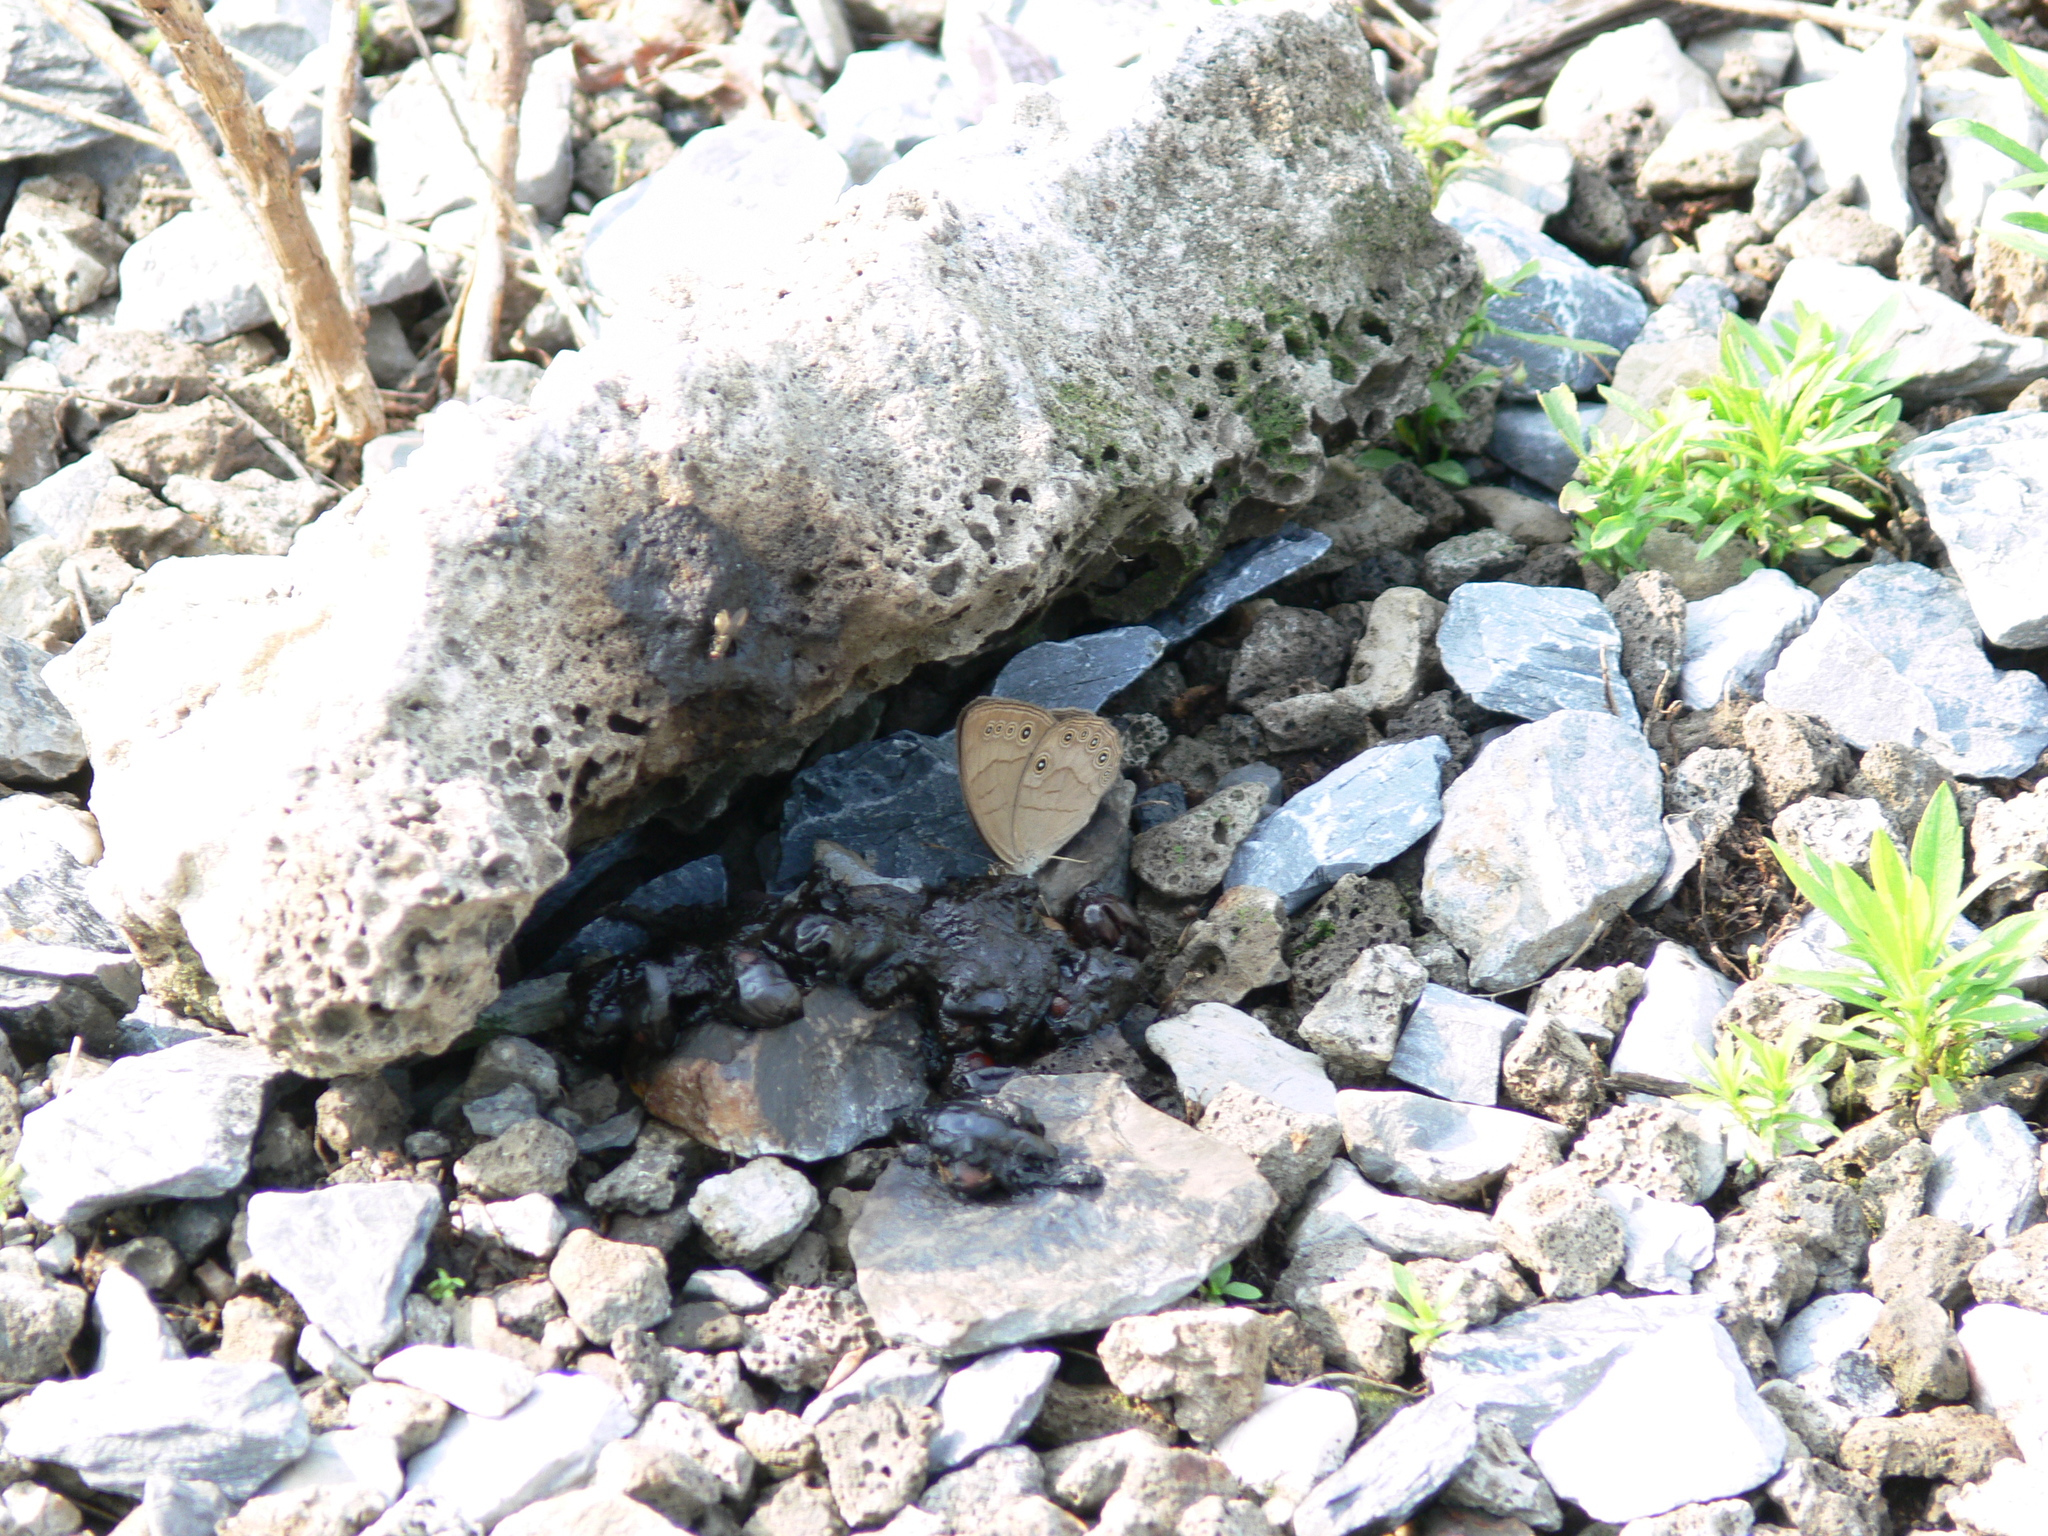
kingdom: Animalia
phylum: Arthropoda
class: Insecta
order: Lepidoptera
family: Nymphalidae
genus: Lethe
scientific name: Lethe eurydice
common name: Eyed brown
